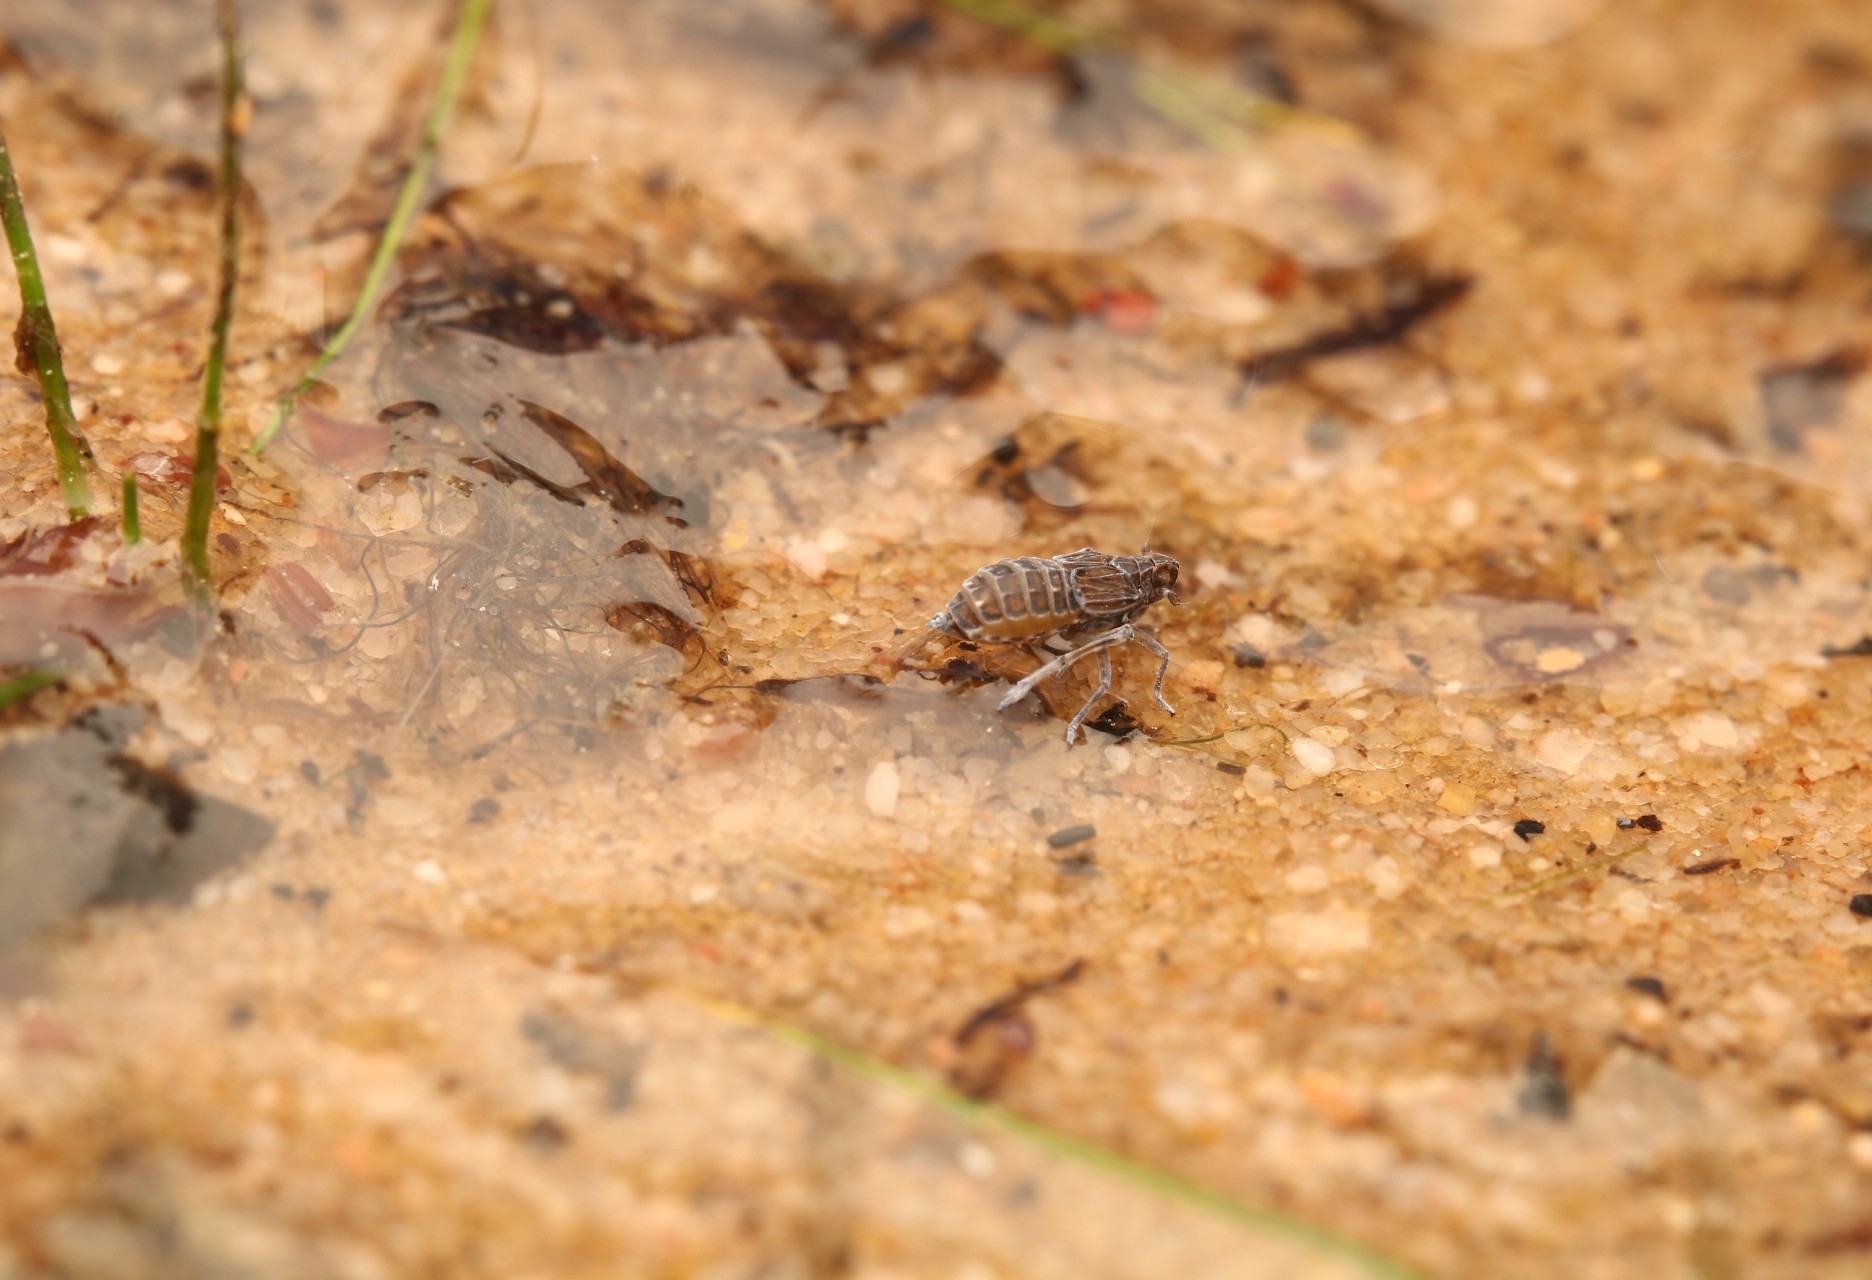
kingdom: Animalia
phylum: Arthropoda
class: Insecta
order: Hemiptera
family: Delphacidae
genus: Megamelus
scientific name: Megamelus davisi
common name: Planthopper
